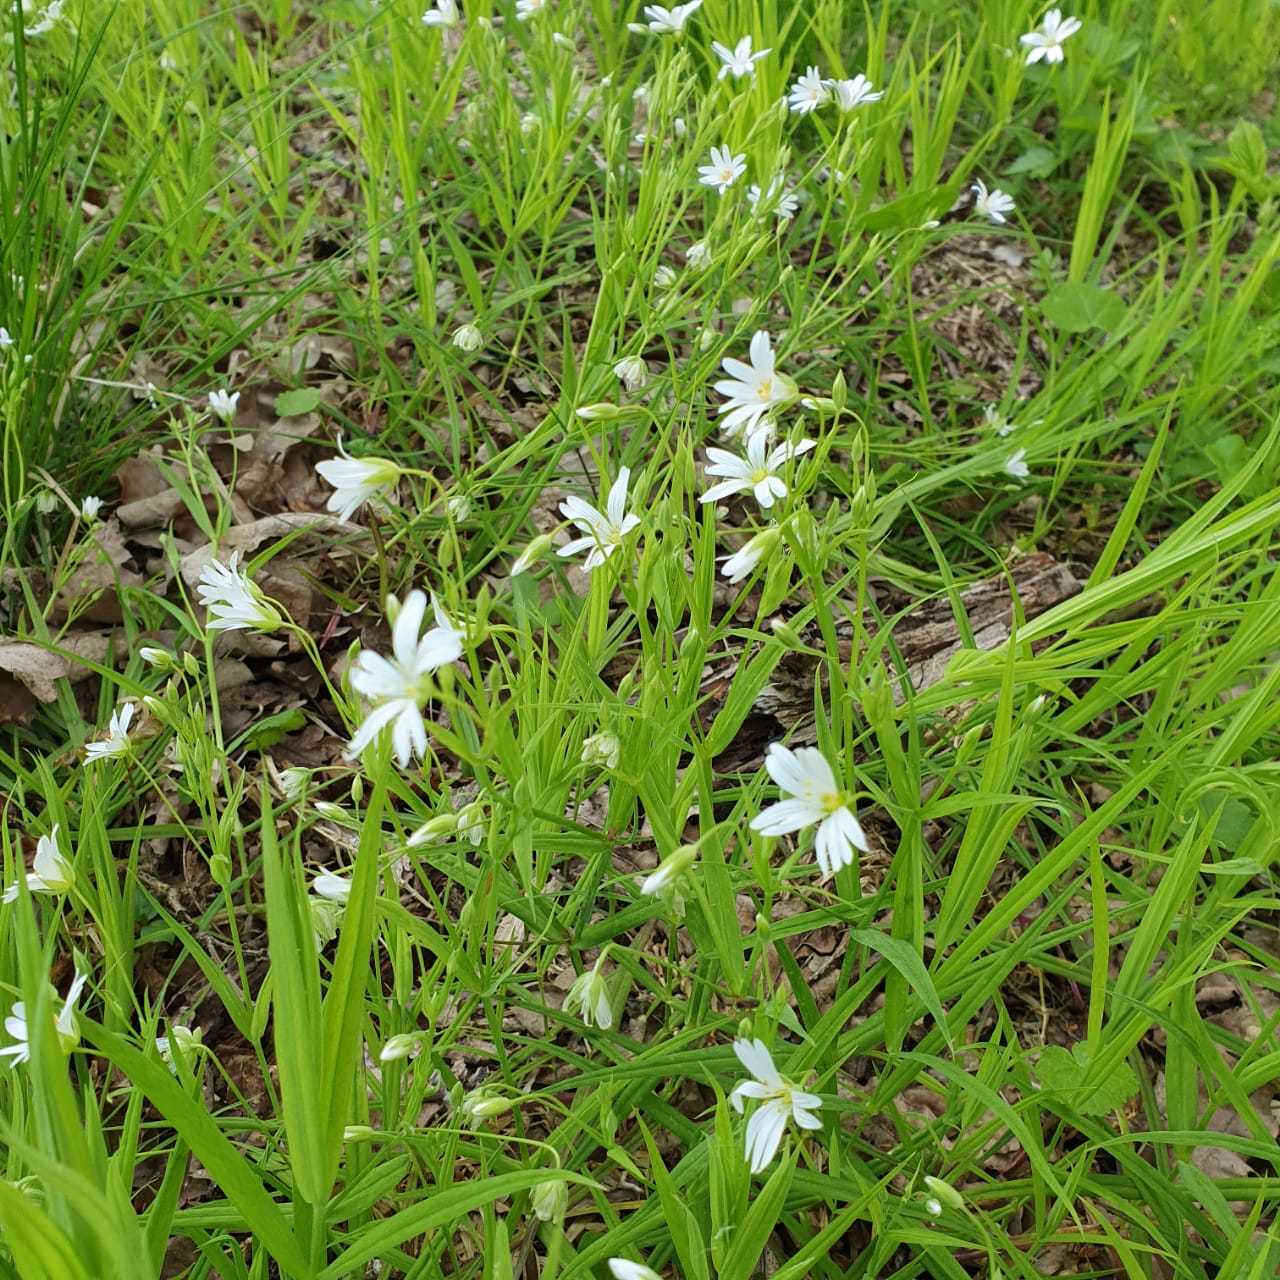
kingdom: Plantae
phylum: Tracheophyta
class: Magnoliopsida
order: Caryophyllales
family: Caryophyllaceae
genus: Rabelera
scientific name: Rabelera holostea
